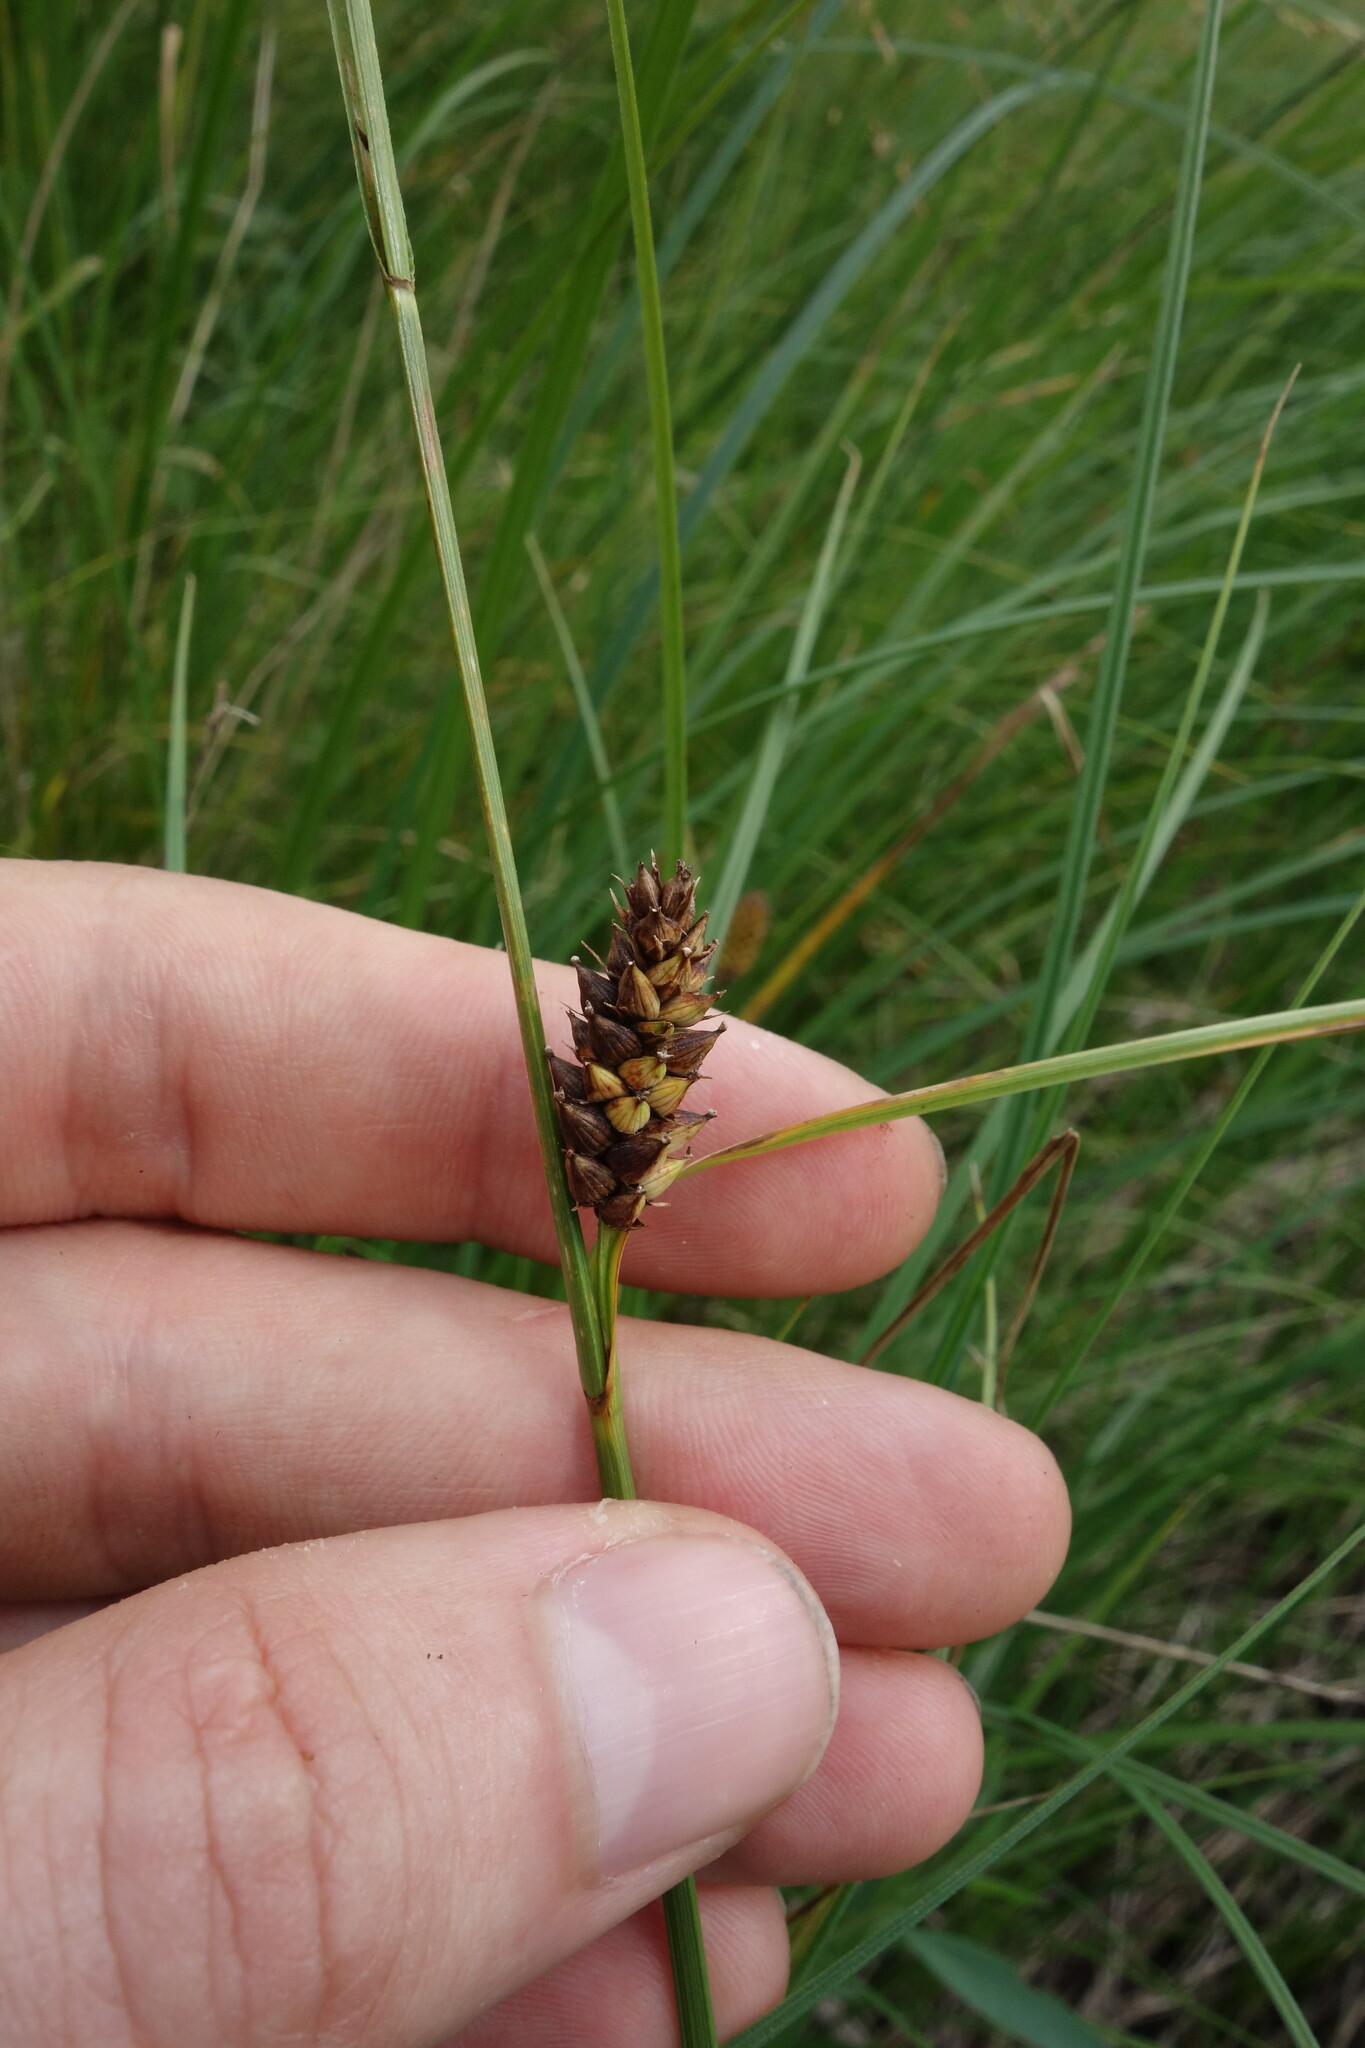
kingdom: Plantae
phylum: Tracheophyta
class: Liliopsida
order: Poales
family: Cyperaceae
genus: Carex
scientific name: Carex melanostachya
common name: Black-spiked sedge
